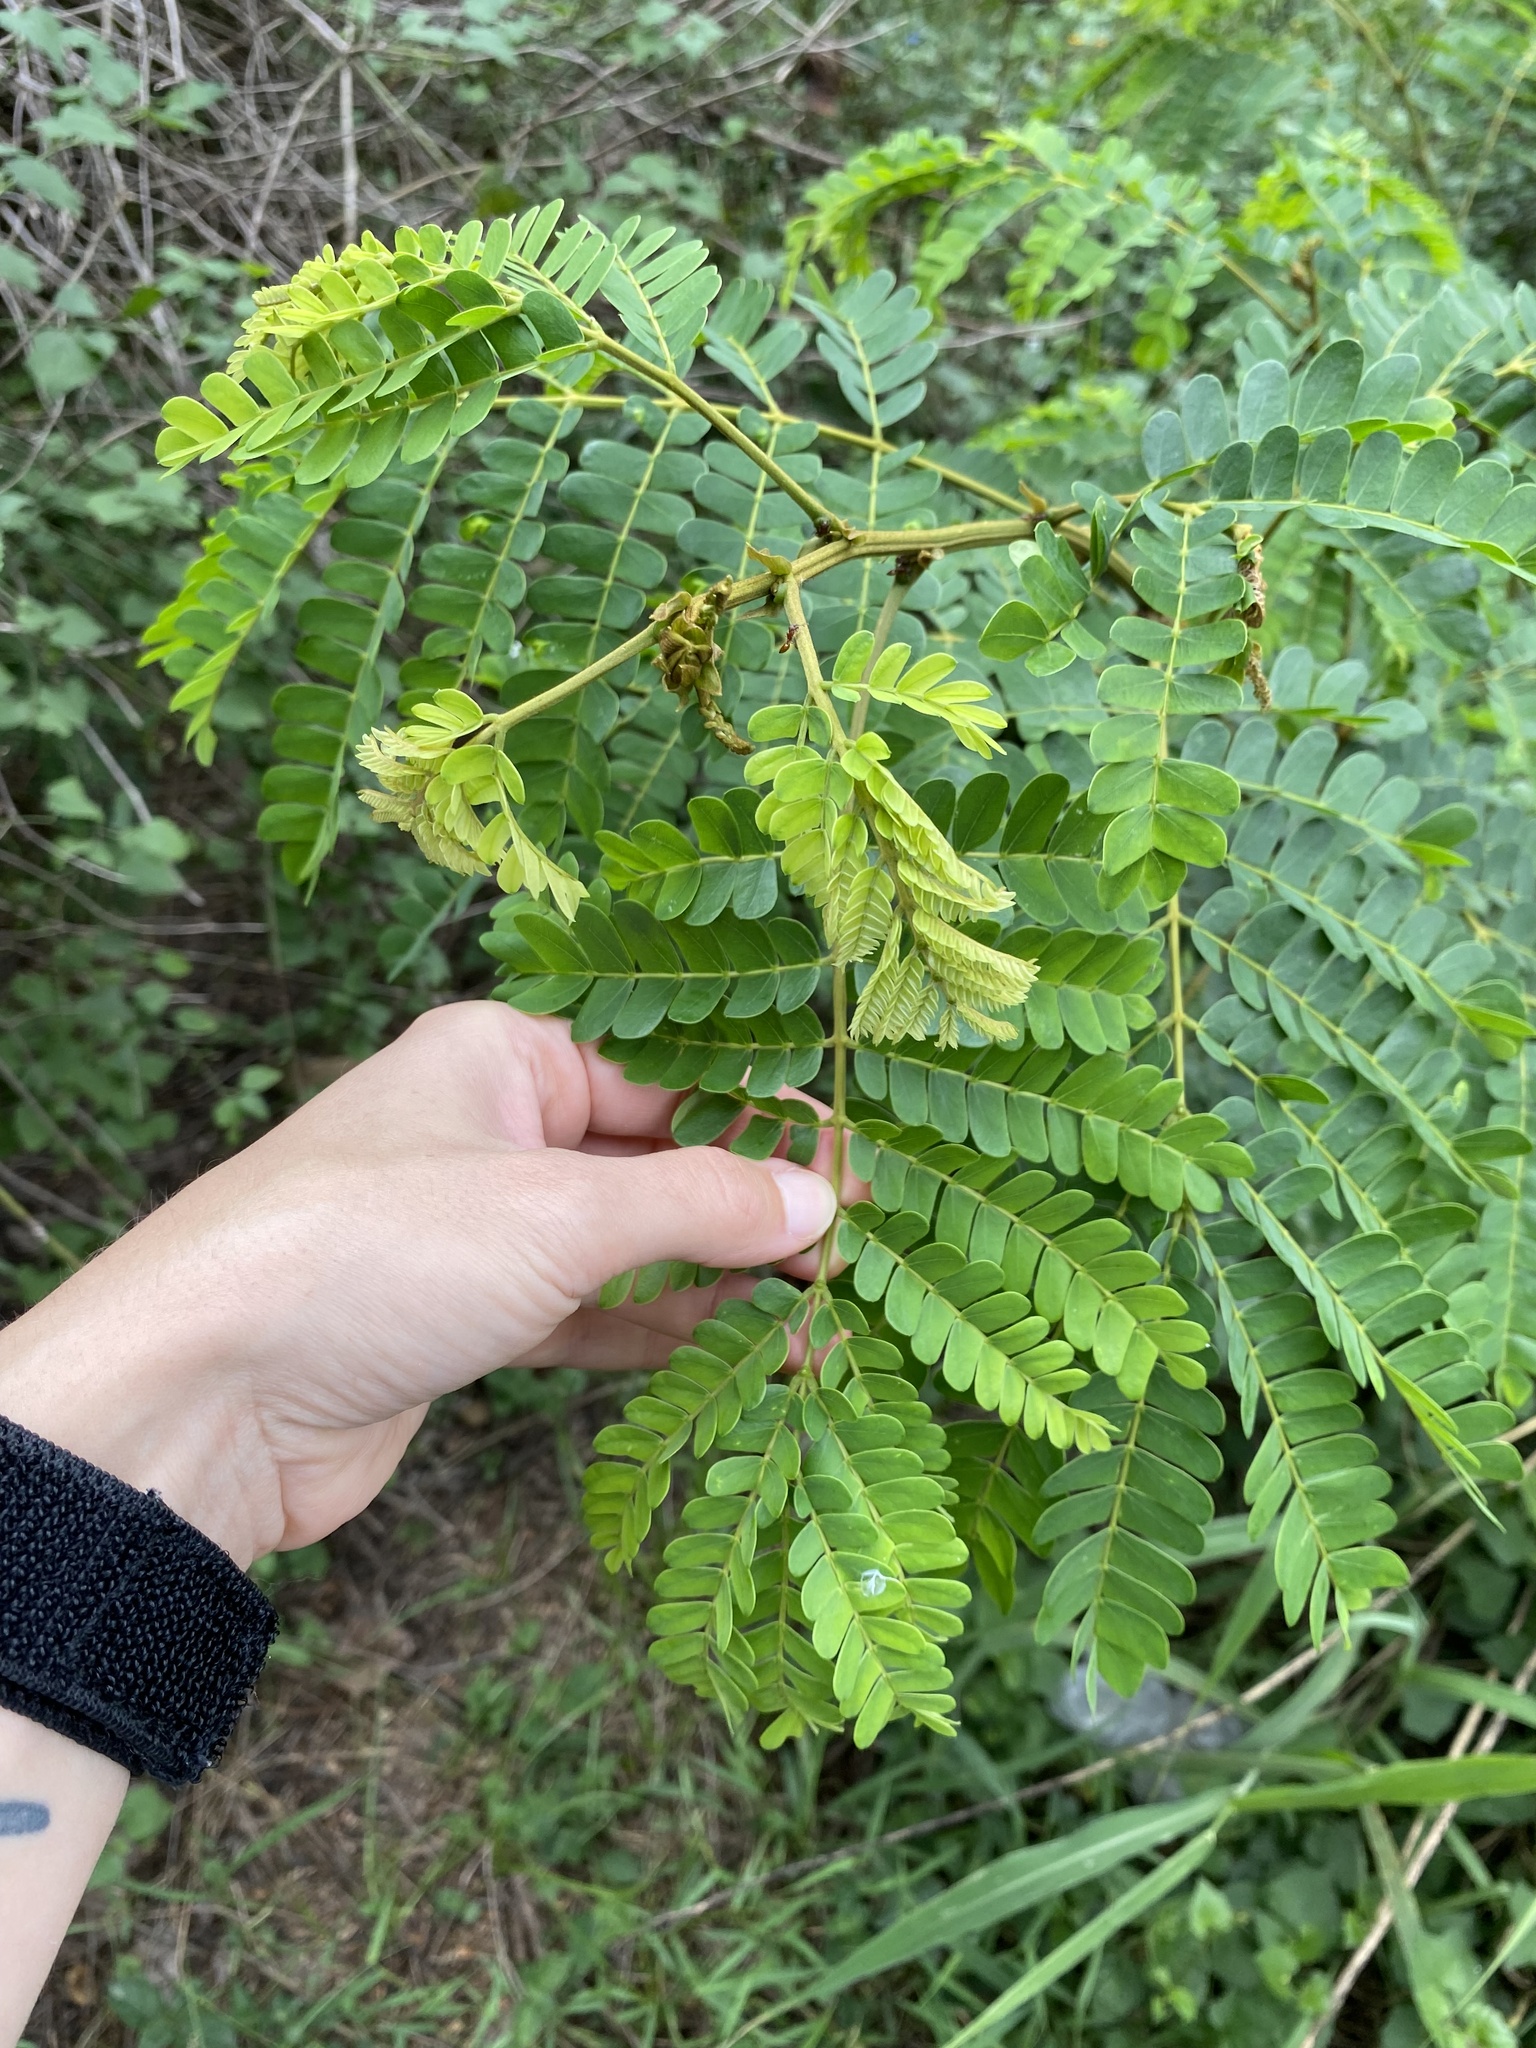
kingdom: Plantae
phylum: Tracheophyta
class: Magnoliopsida
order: Fabales
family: Fabaceae
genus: Albizia
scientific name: Albizia adianthifolia
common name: West african albizia
